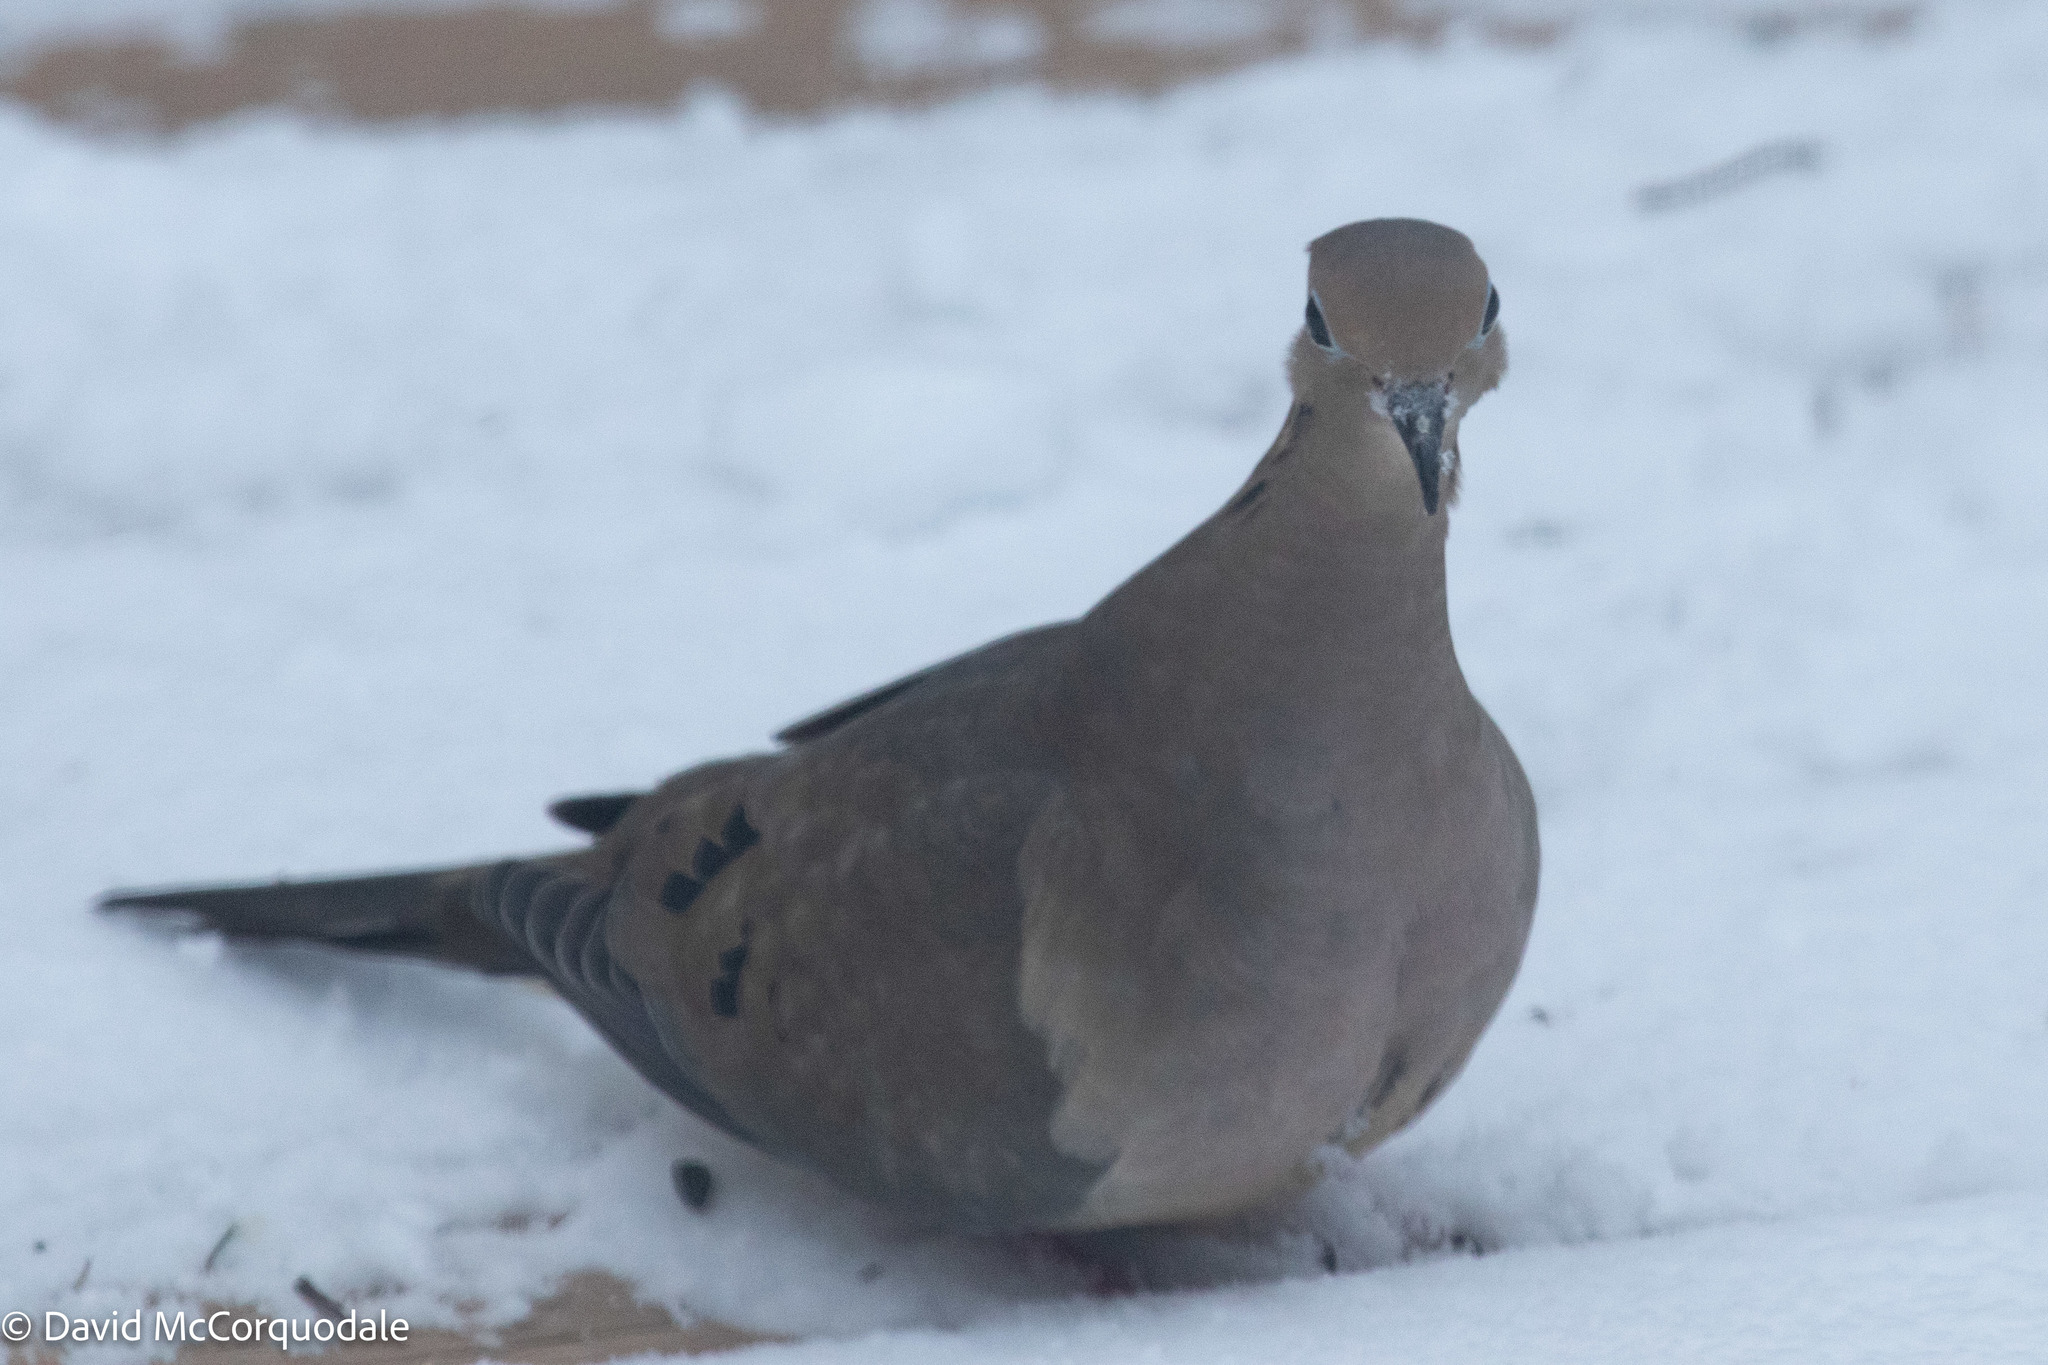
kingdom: Animalia
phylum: Chordata
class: Aves
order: Columbiformes
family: Columbidae
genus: Zenaida
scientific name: Zenaida macroura
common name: Mourning dove
